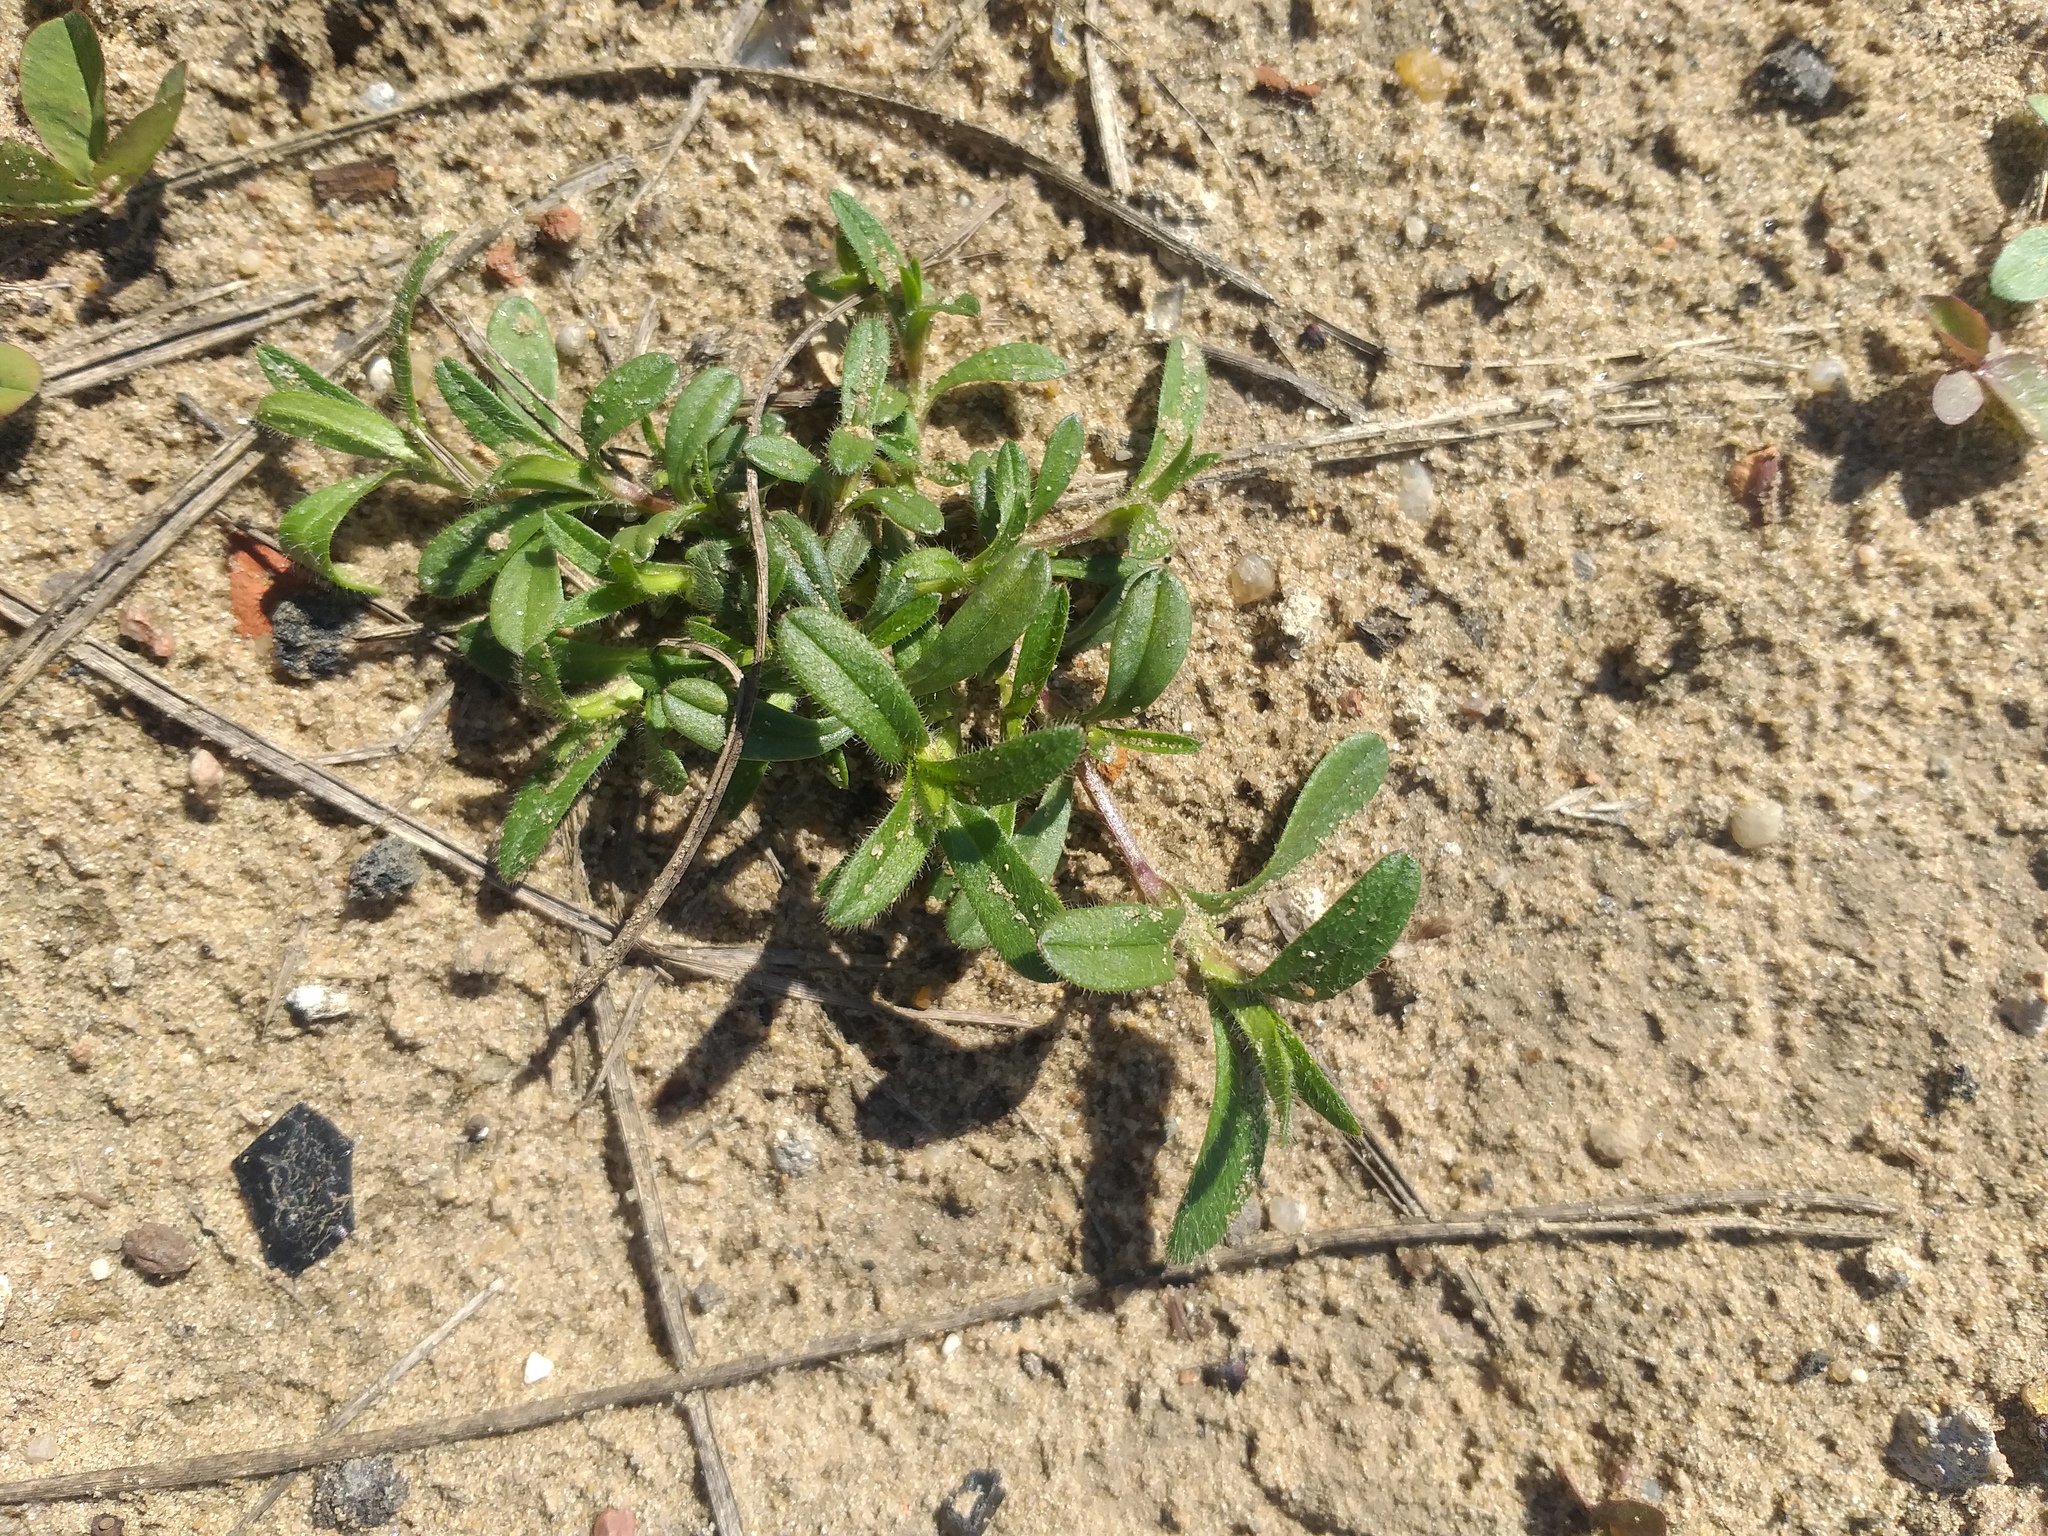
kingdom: Plantae
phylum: Tracheophyta
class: Magnoliopsida
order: Caryophyllales
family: Caryophyllaceae
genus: Cerastium
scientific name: Cerastium holosteoides
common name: Big chickweed
